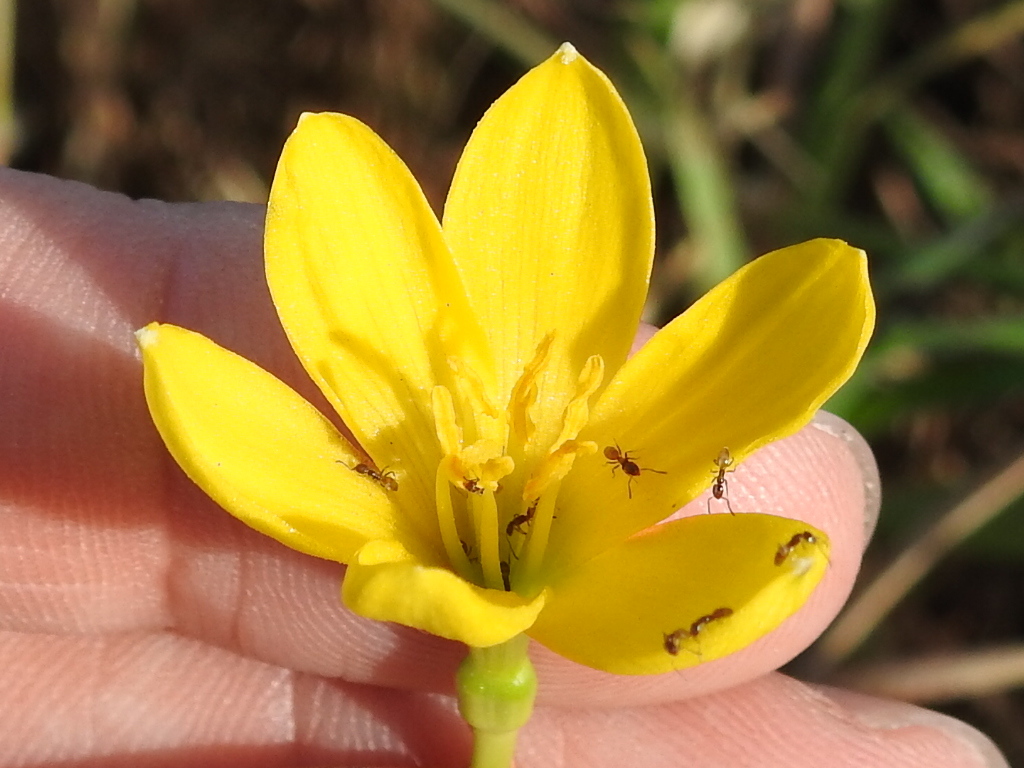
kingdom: Plantae
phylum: Tracheophyta
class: Liliopsida
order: Asparagales
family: Amaryllidaceae
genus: Zephyranthes
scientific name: Zephyranthes pulchella
